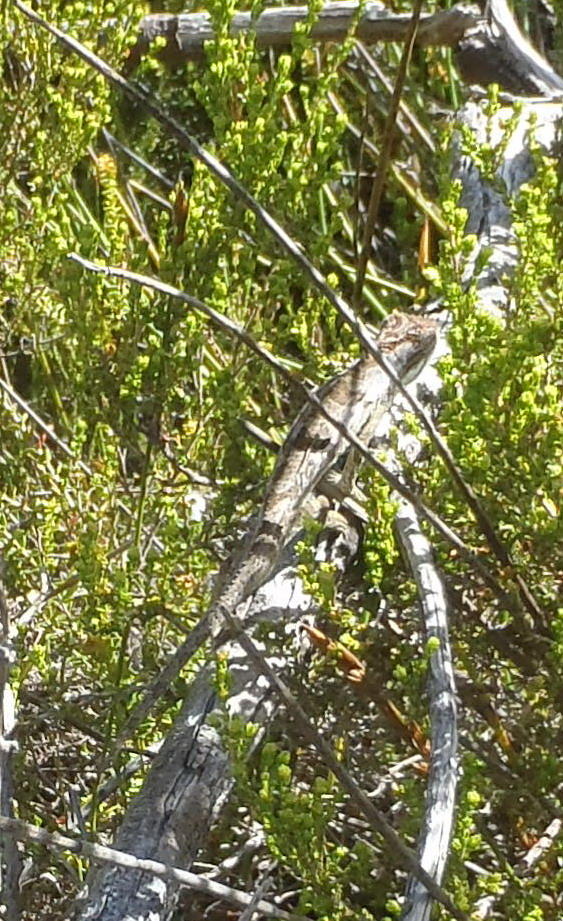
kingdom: Animalia
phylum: Chordata
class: Squamata
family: Chamaeleonidae
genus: Bradypodion
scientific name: Bradypodion gutturale
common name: Little karoo dwarf chameleon
